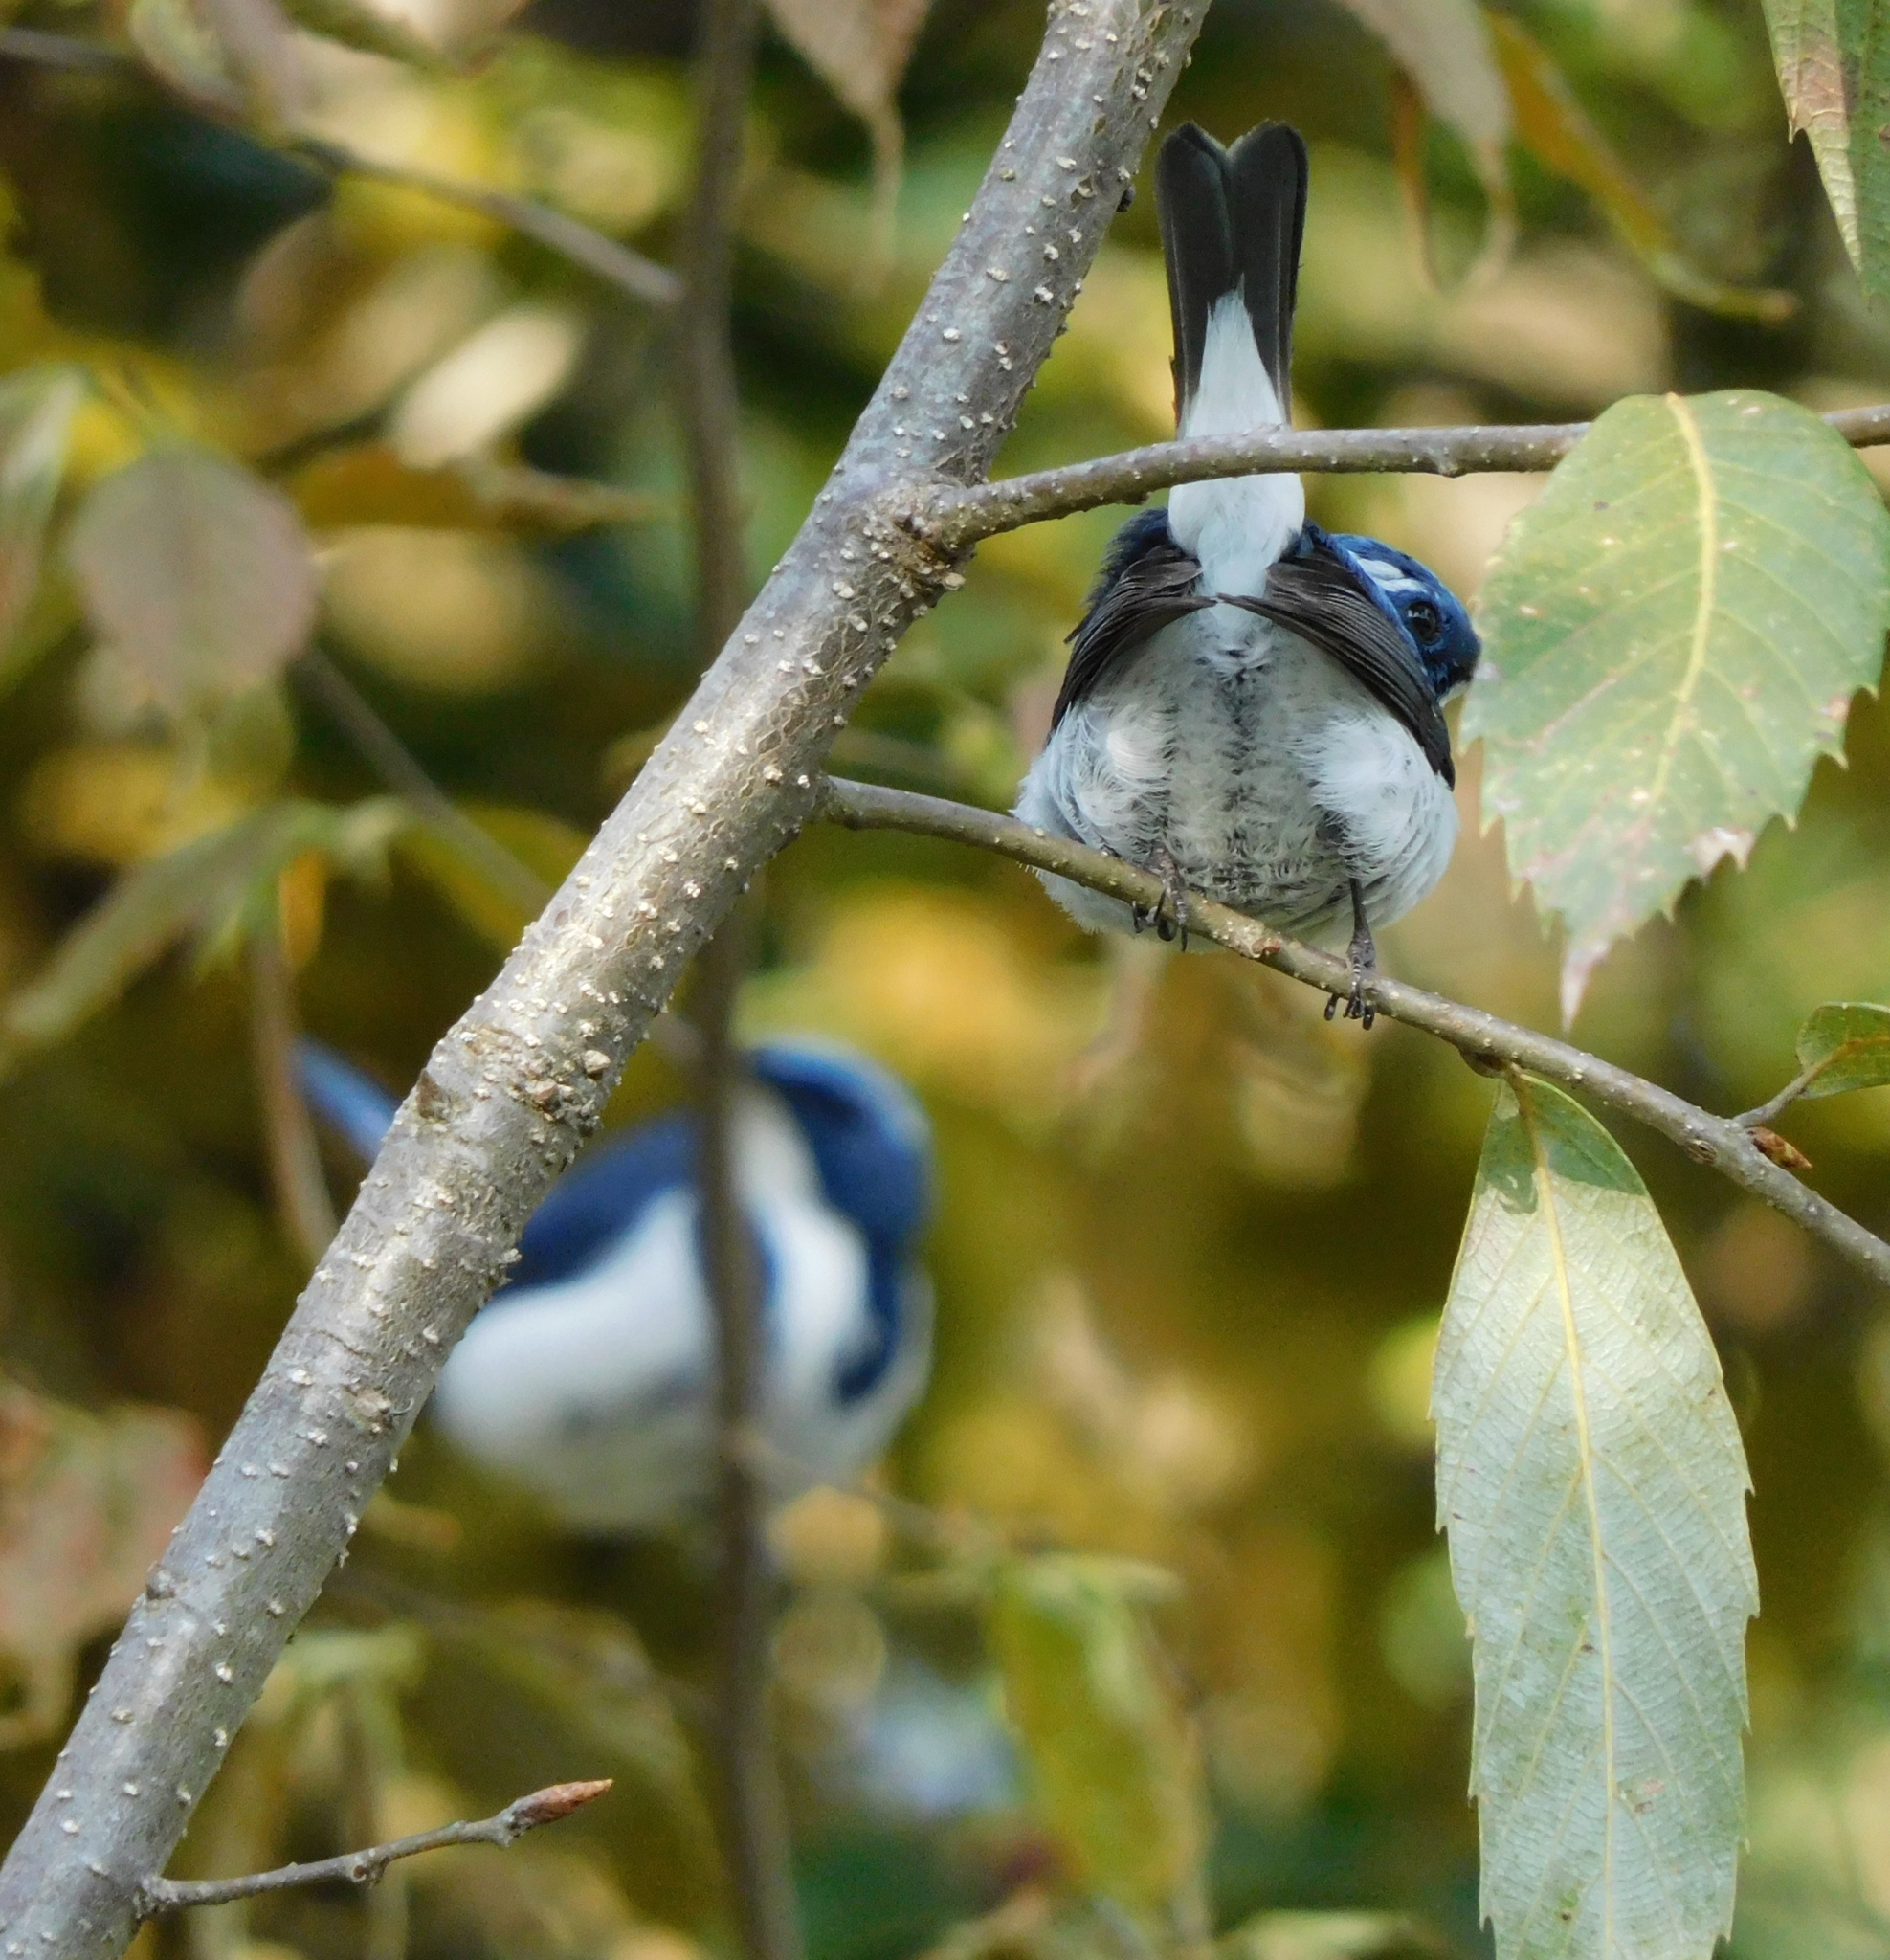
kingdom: Animalia
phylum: Chordata
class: Aves
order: Passeriformes
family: Muscicapidae
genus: Ficedula
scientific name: Ficedula superciliaris
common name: Ultramarine flycatcher
